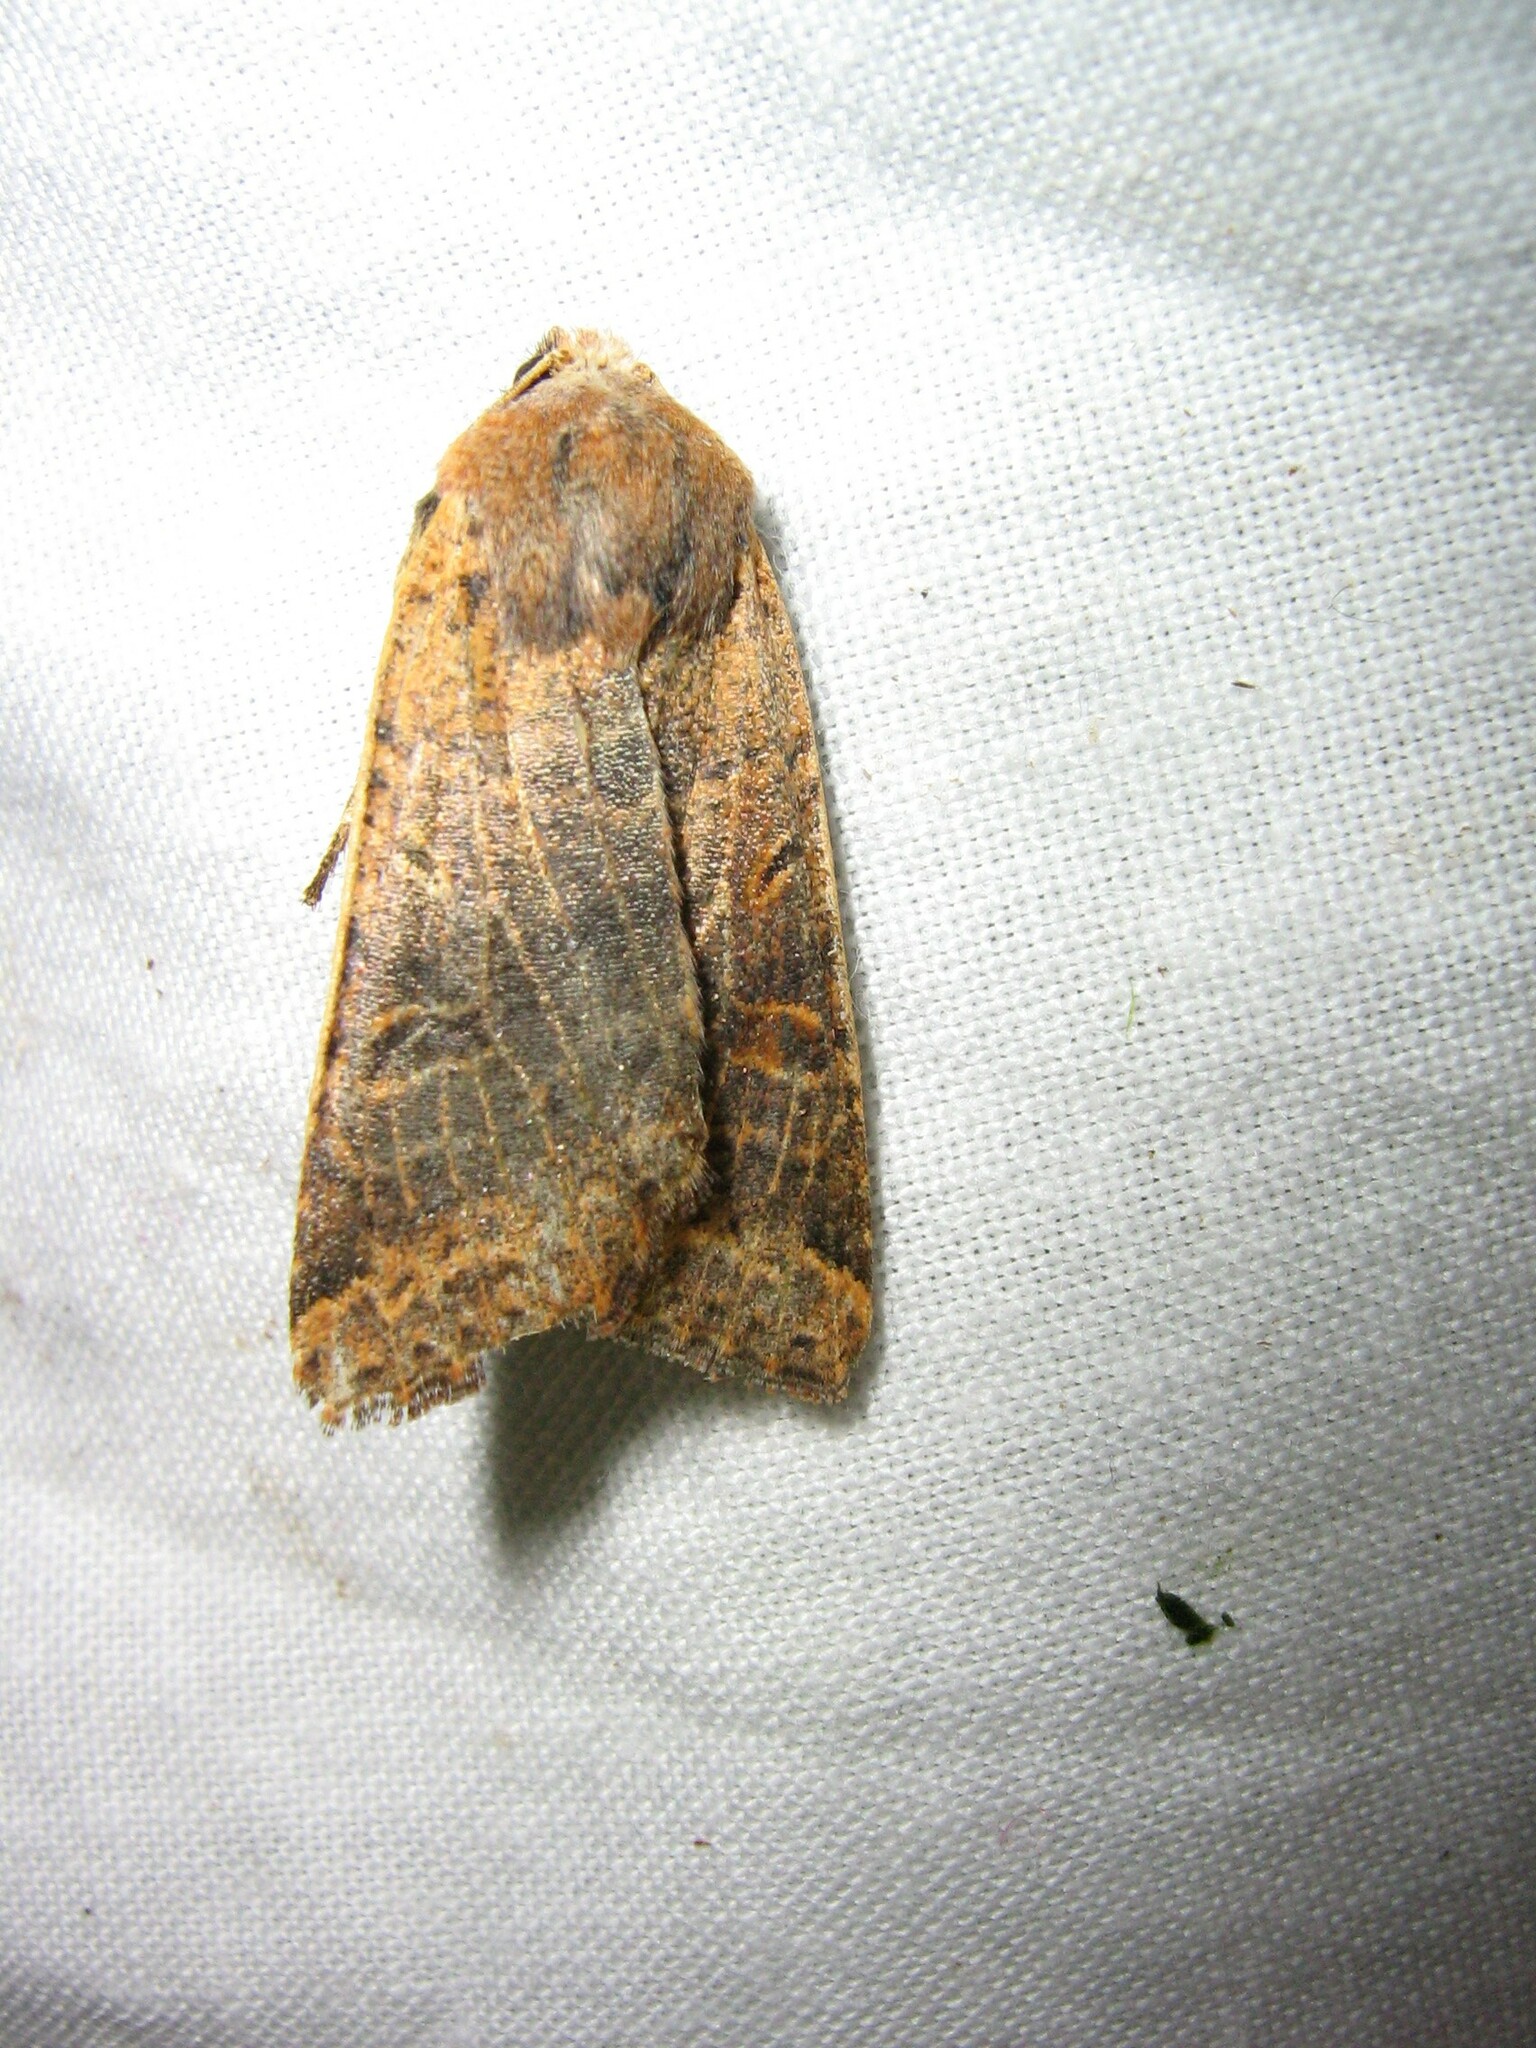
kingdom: Animalia
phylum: Arthropoda
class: Insecta
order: Lepidoptera
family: Noctuidae
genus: Agrochola
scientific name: Agrochola lychnidis
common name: Beaded chestnut
